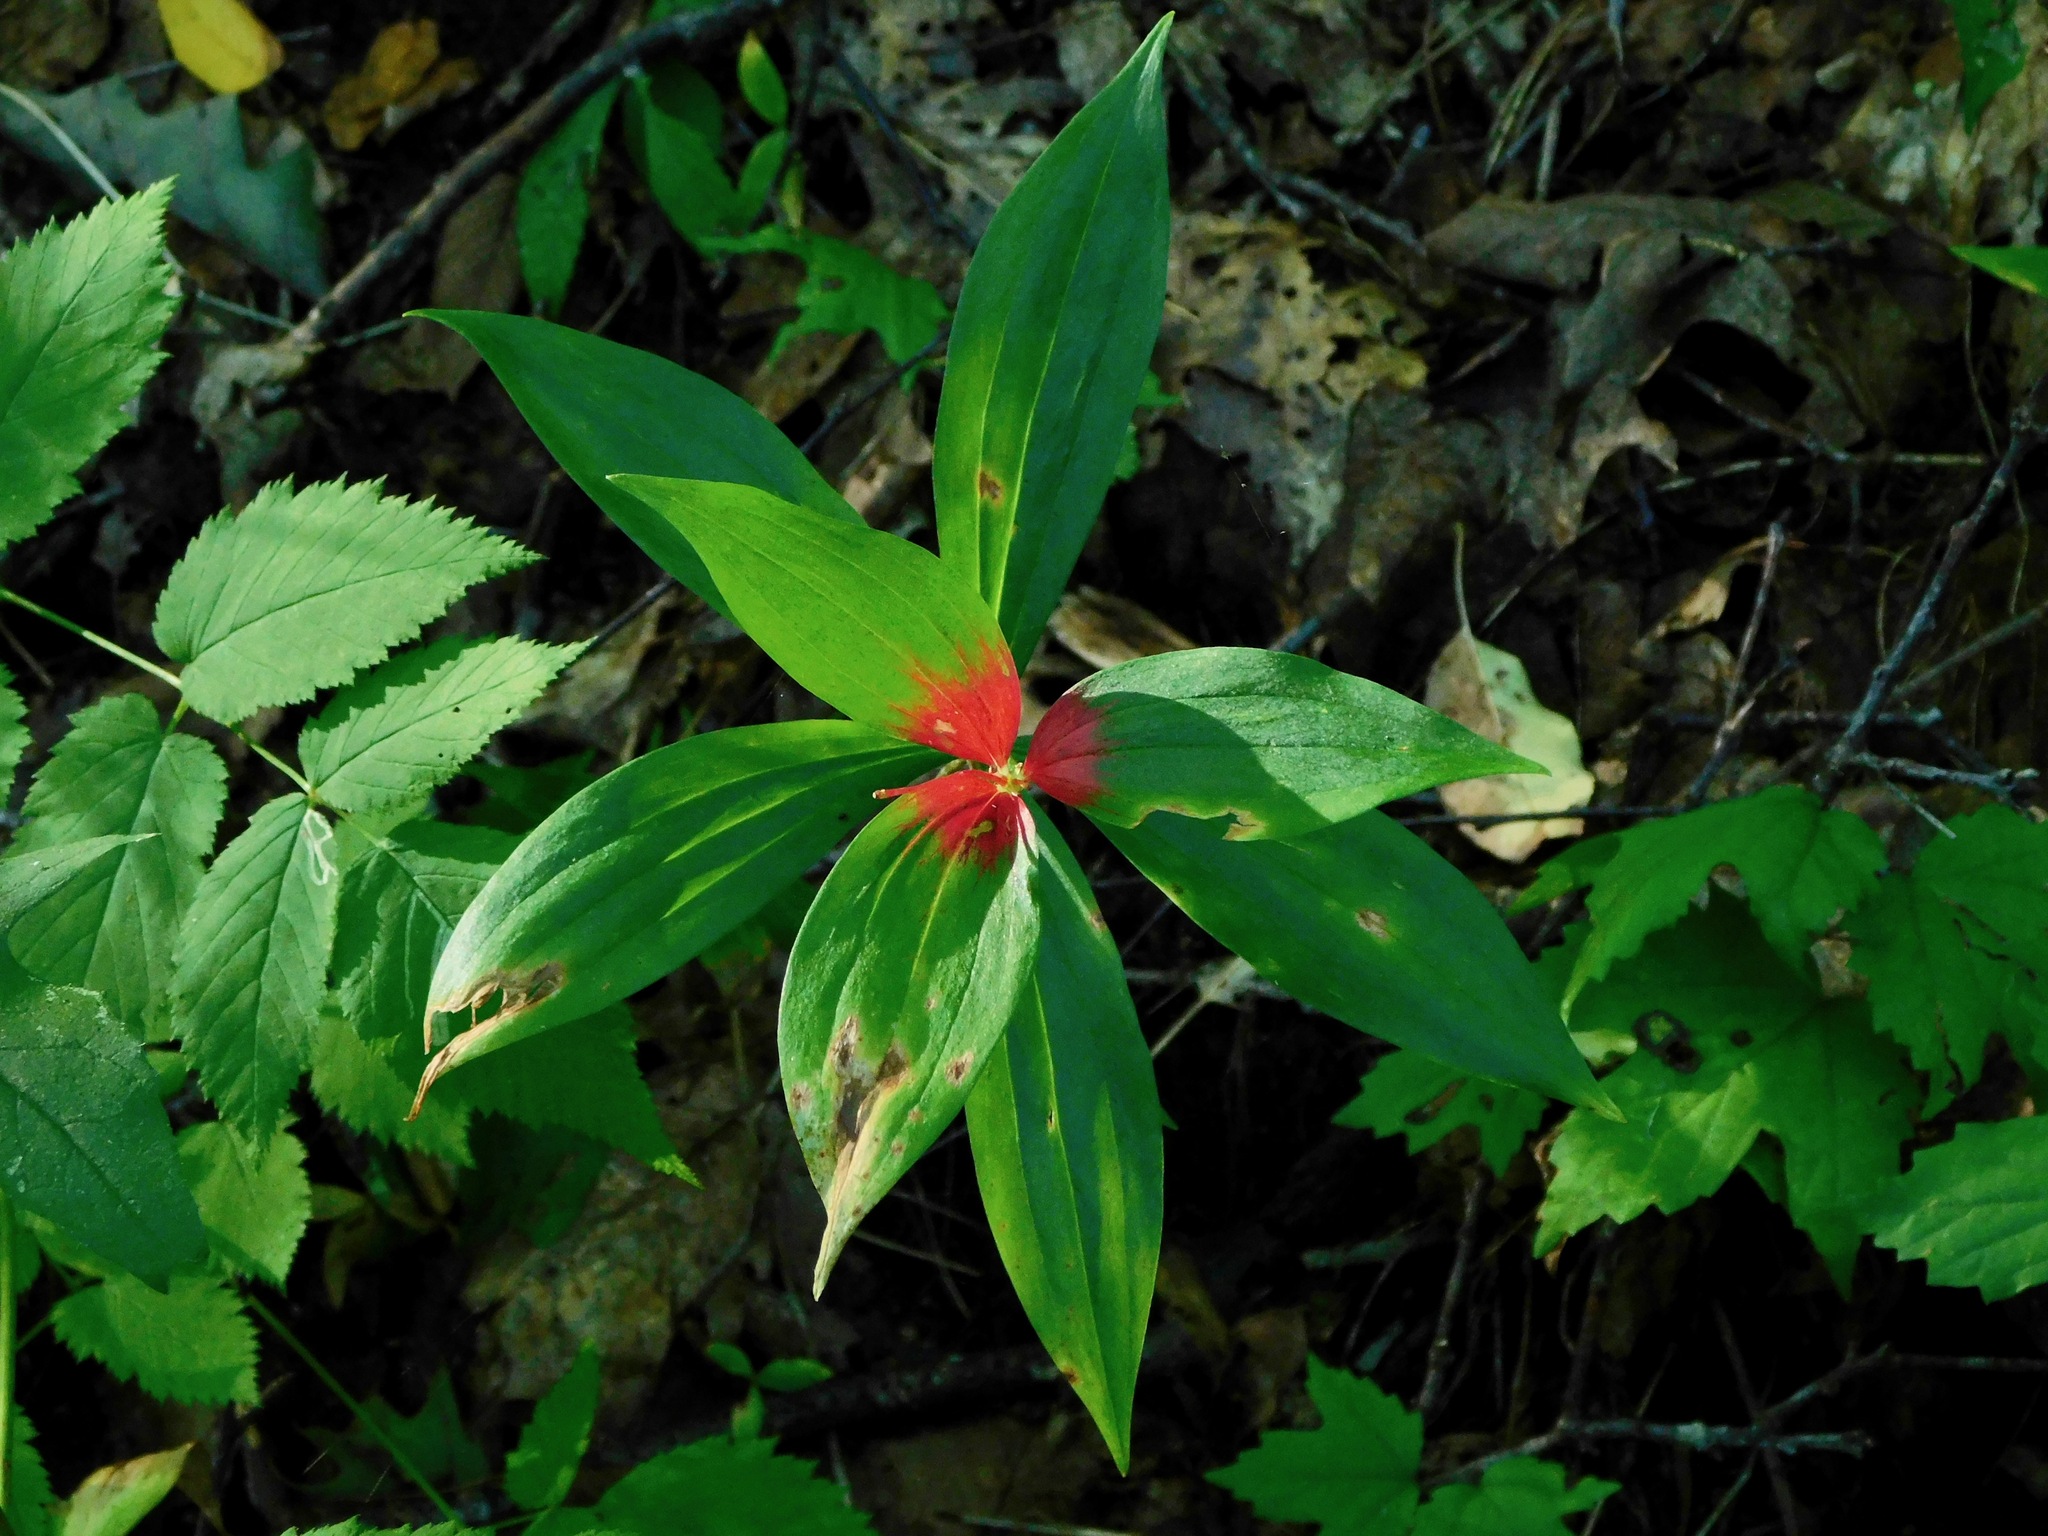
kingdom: Plantae
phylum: Tracheophyta
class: Liliopsida
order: Liliales
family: Liliaceae
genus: Medeola
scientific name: Medeola virginiana
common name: Indian cucumber-root
